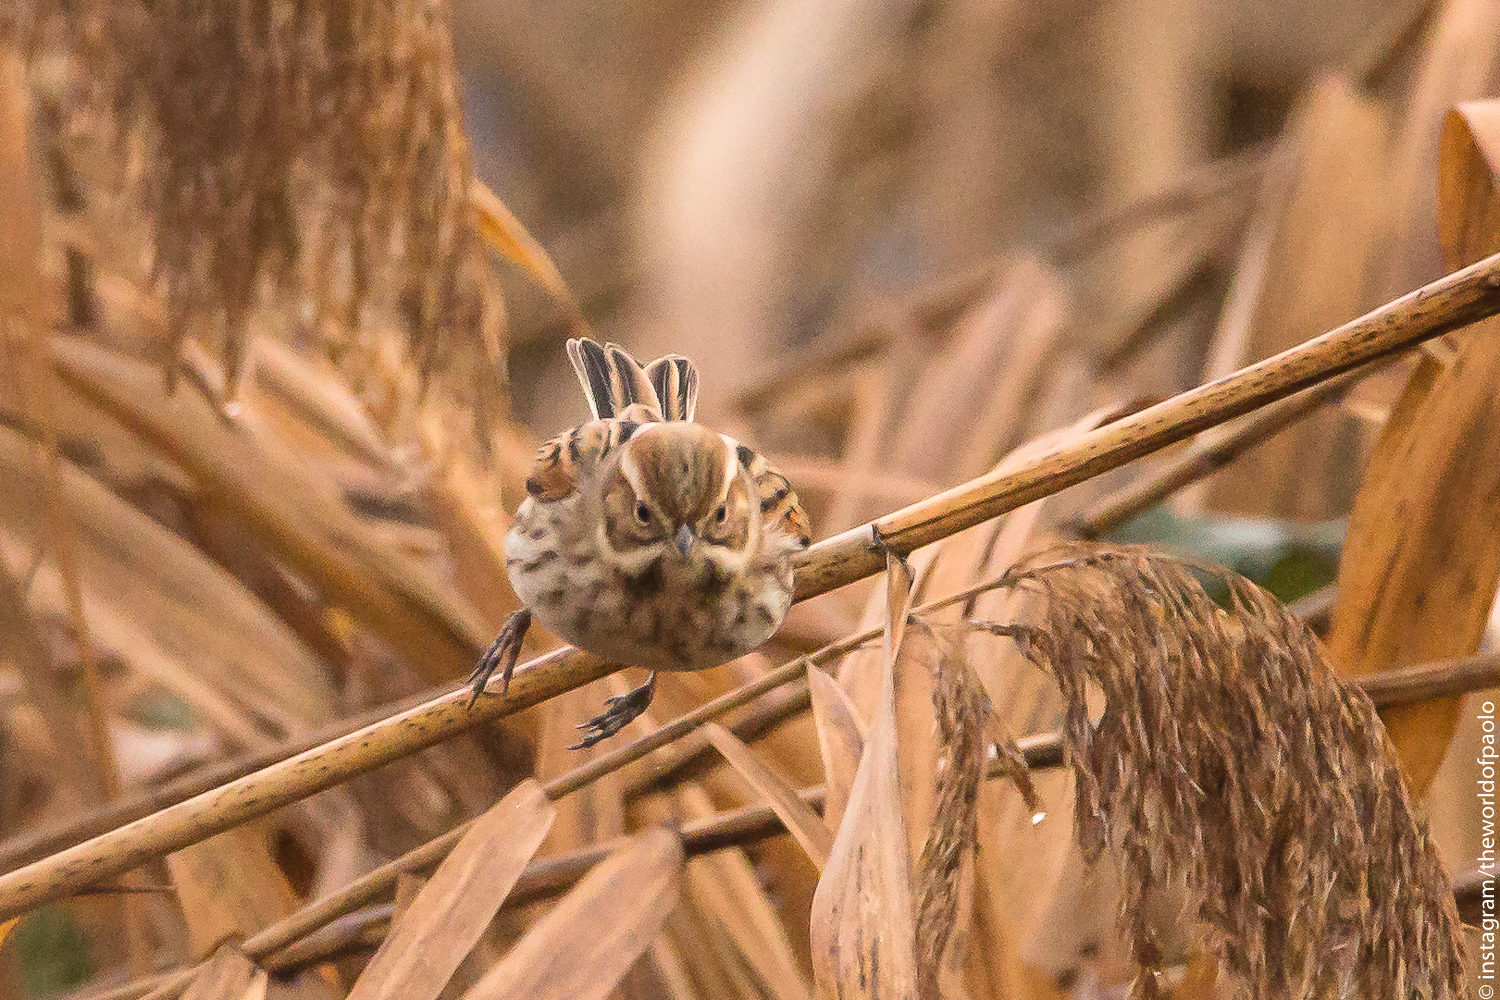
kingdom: Animalia
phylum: Chordata
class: Aves
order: Passeriformes
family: Emberizidae
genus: Emberiza
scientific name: Emberiza schoeniclus
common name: Reed bunting
